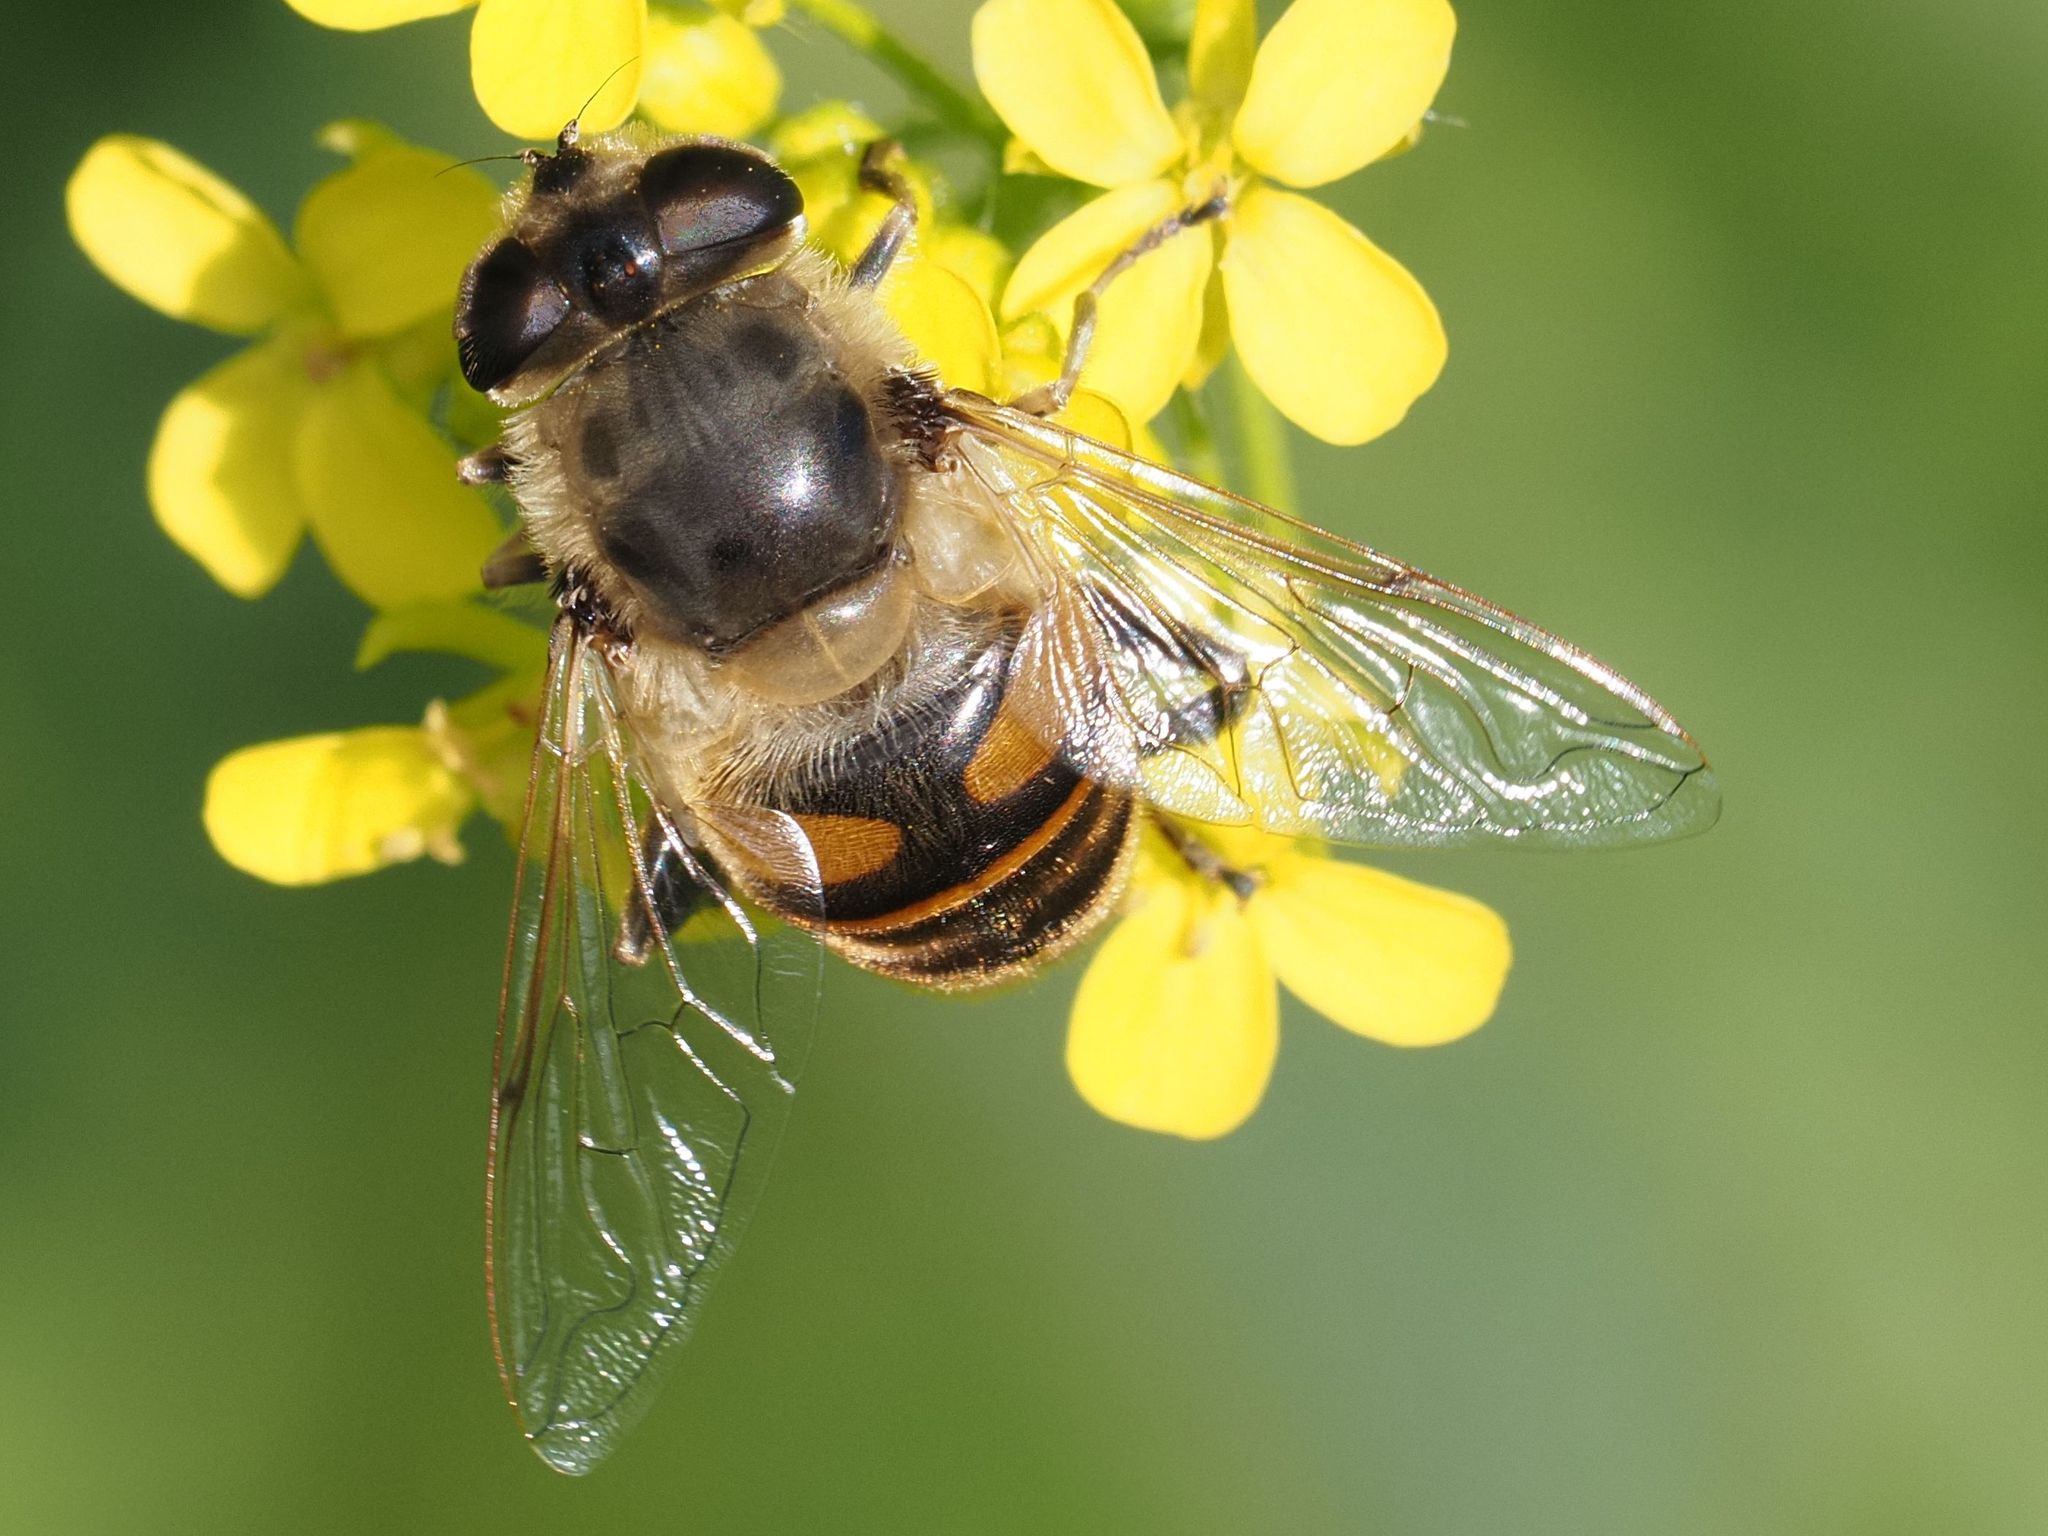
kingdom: Animalia
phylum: Arthropoda
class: Insecta
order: Diptera
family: Syrphidae
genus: Eristalis
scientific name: Eristalis tenax
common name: Drone fly
